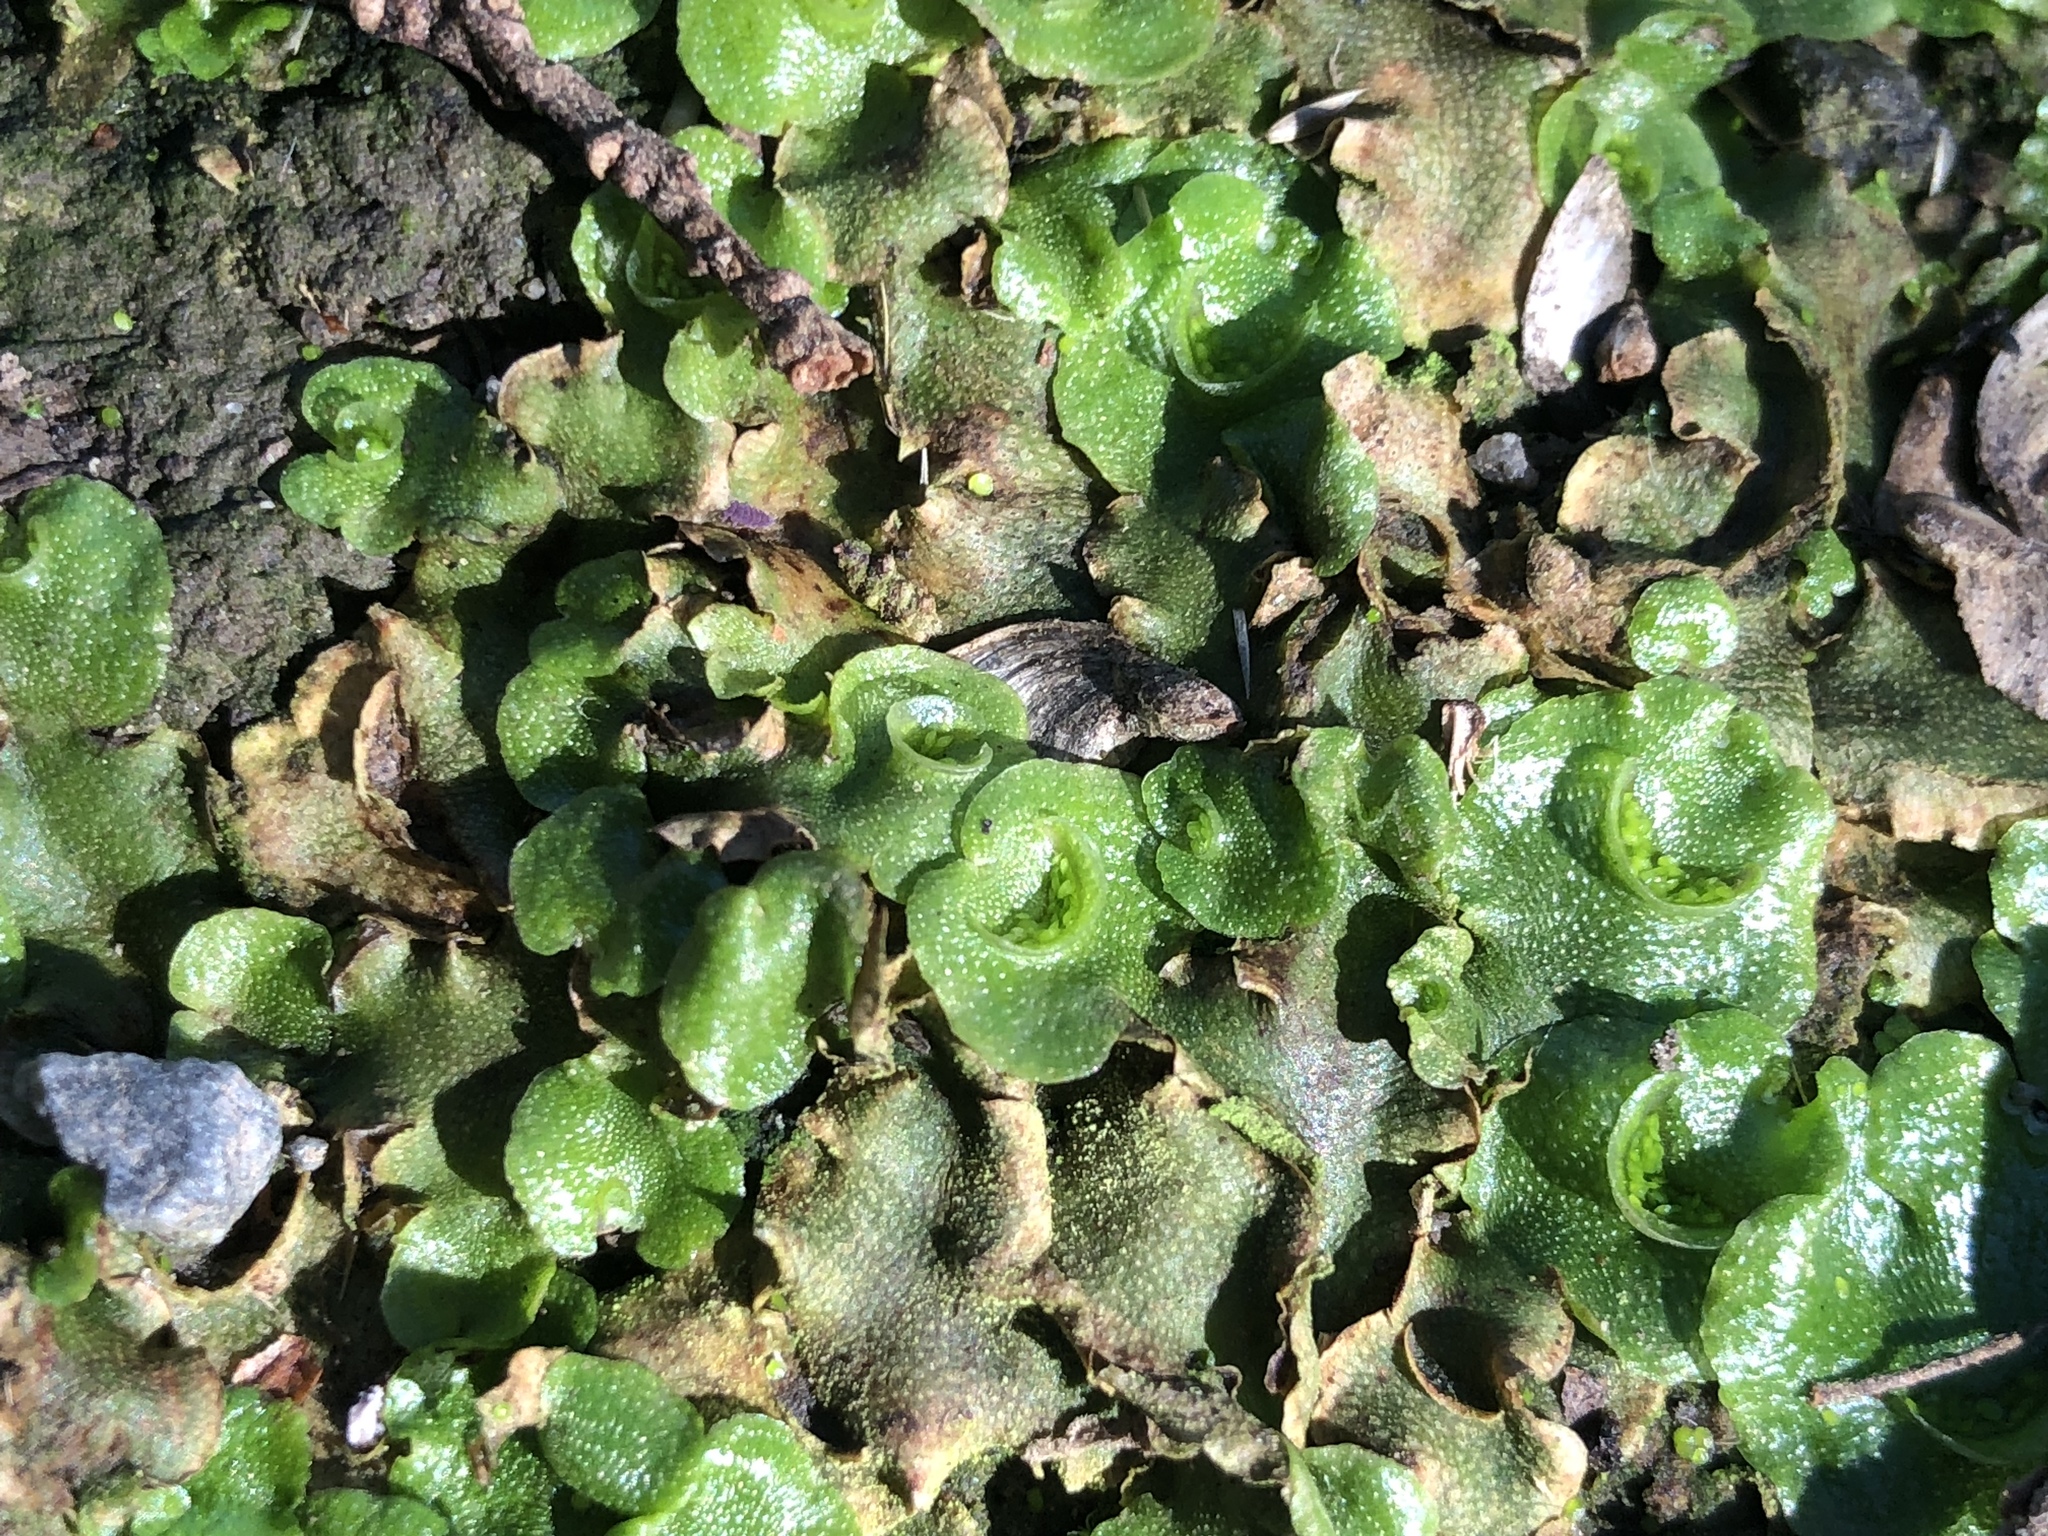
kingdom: Plantae
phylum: Marchantiophyta
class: Marchantiopsida
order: Lunulariales
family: Lunulariaceae
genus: Lunularia
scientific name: Lunularia cruciata
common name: Crescent-cup liverwort
